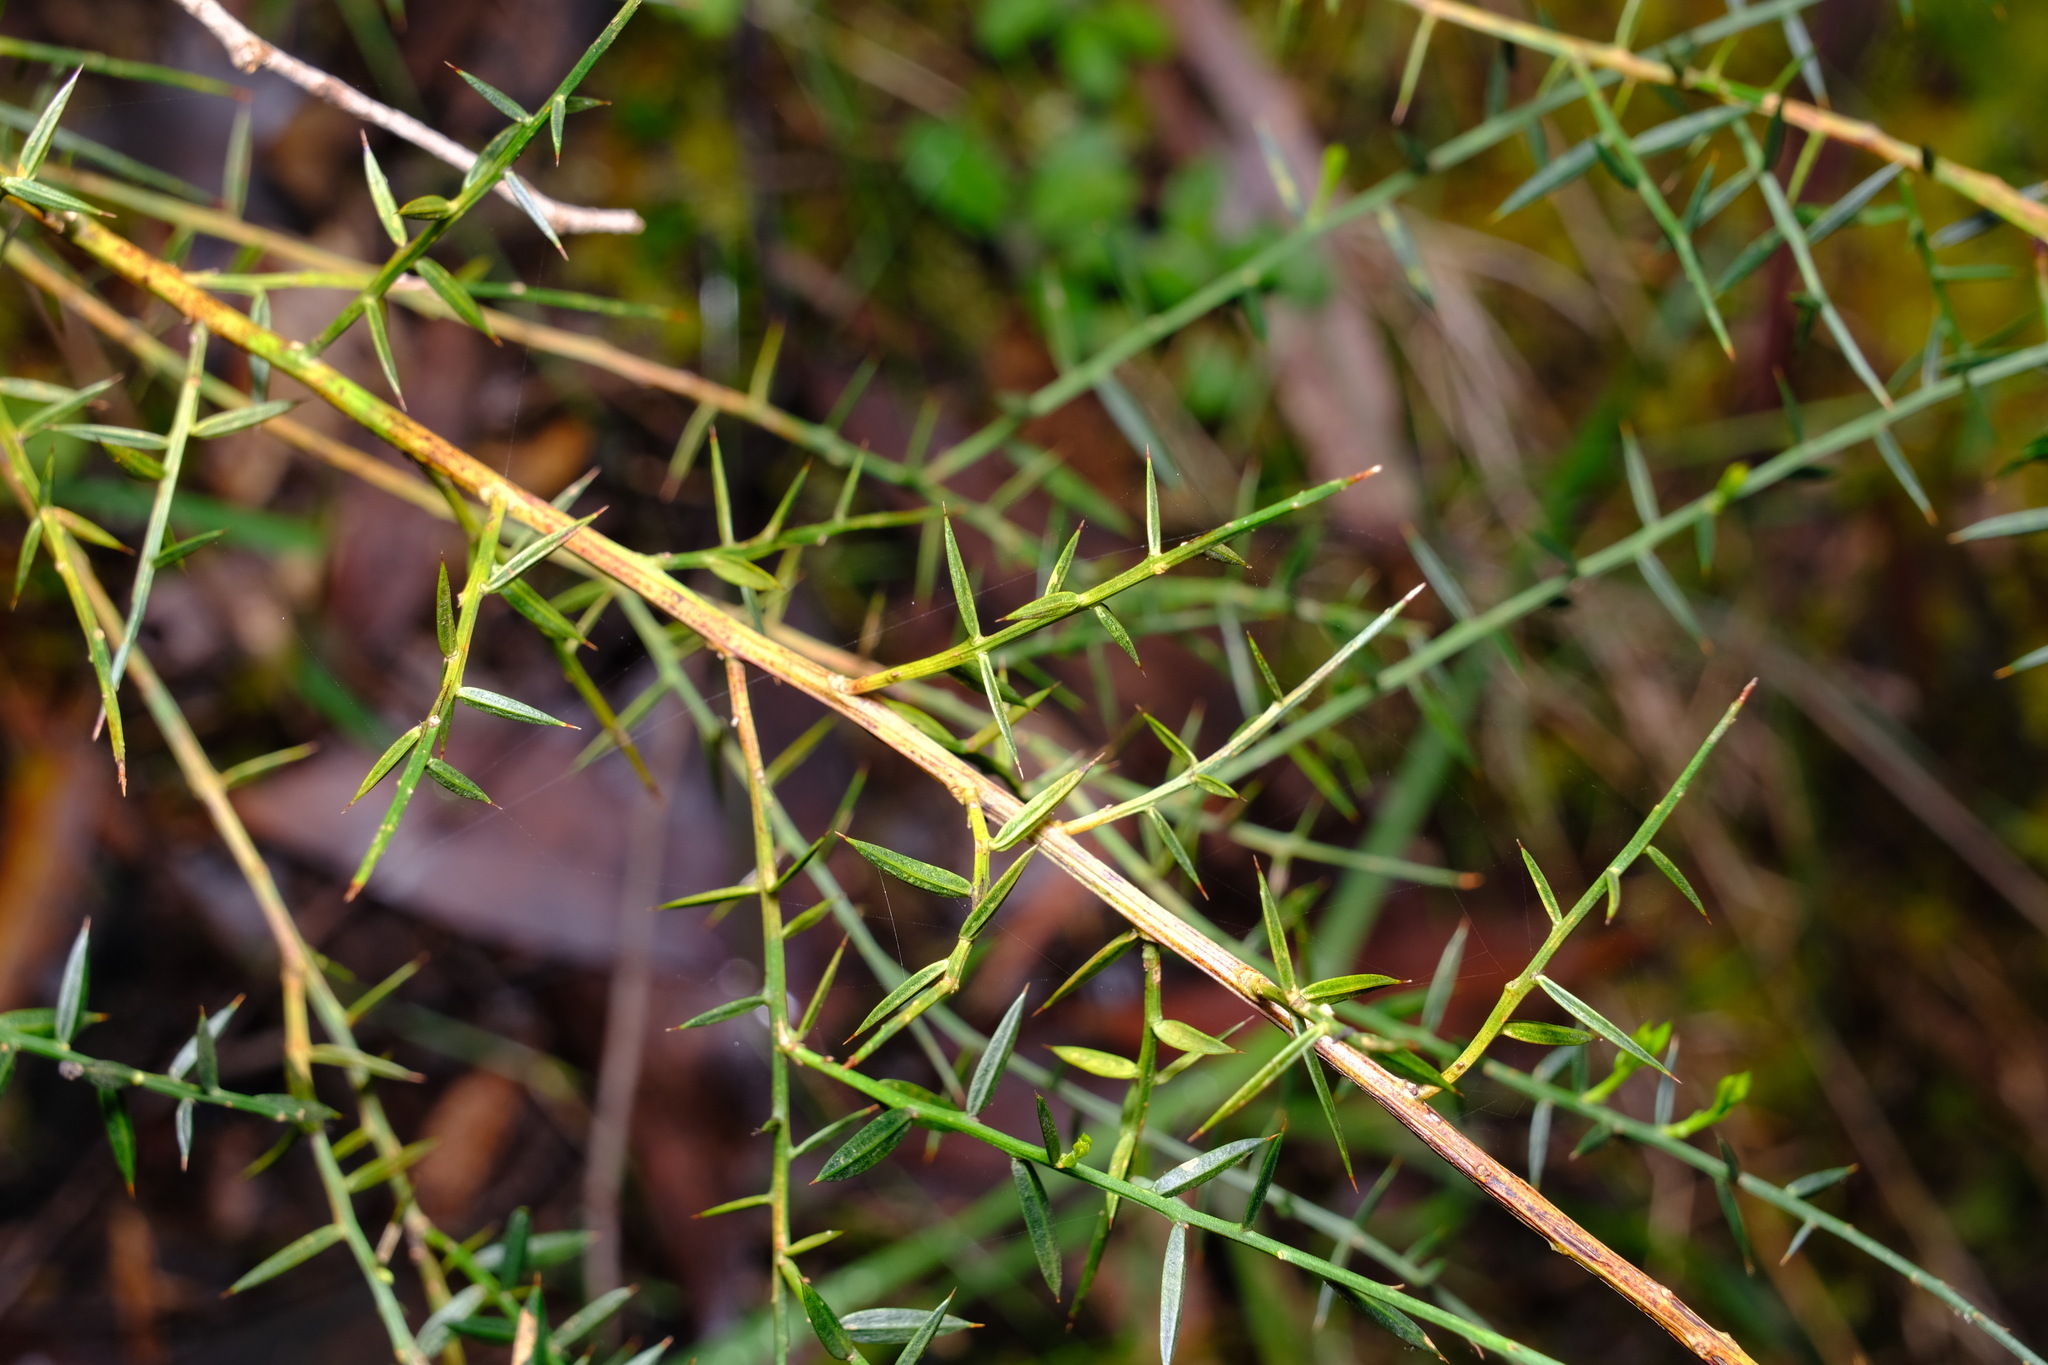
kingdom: Plantae
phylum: Tracheophyta
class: Magnoliopsida
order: Fabales
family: Fabaceae
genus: Daviesia
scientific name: Daviesia ulicifolia
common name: Gorse bitter-pea
